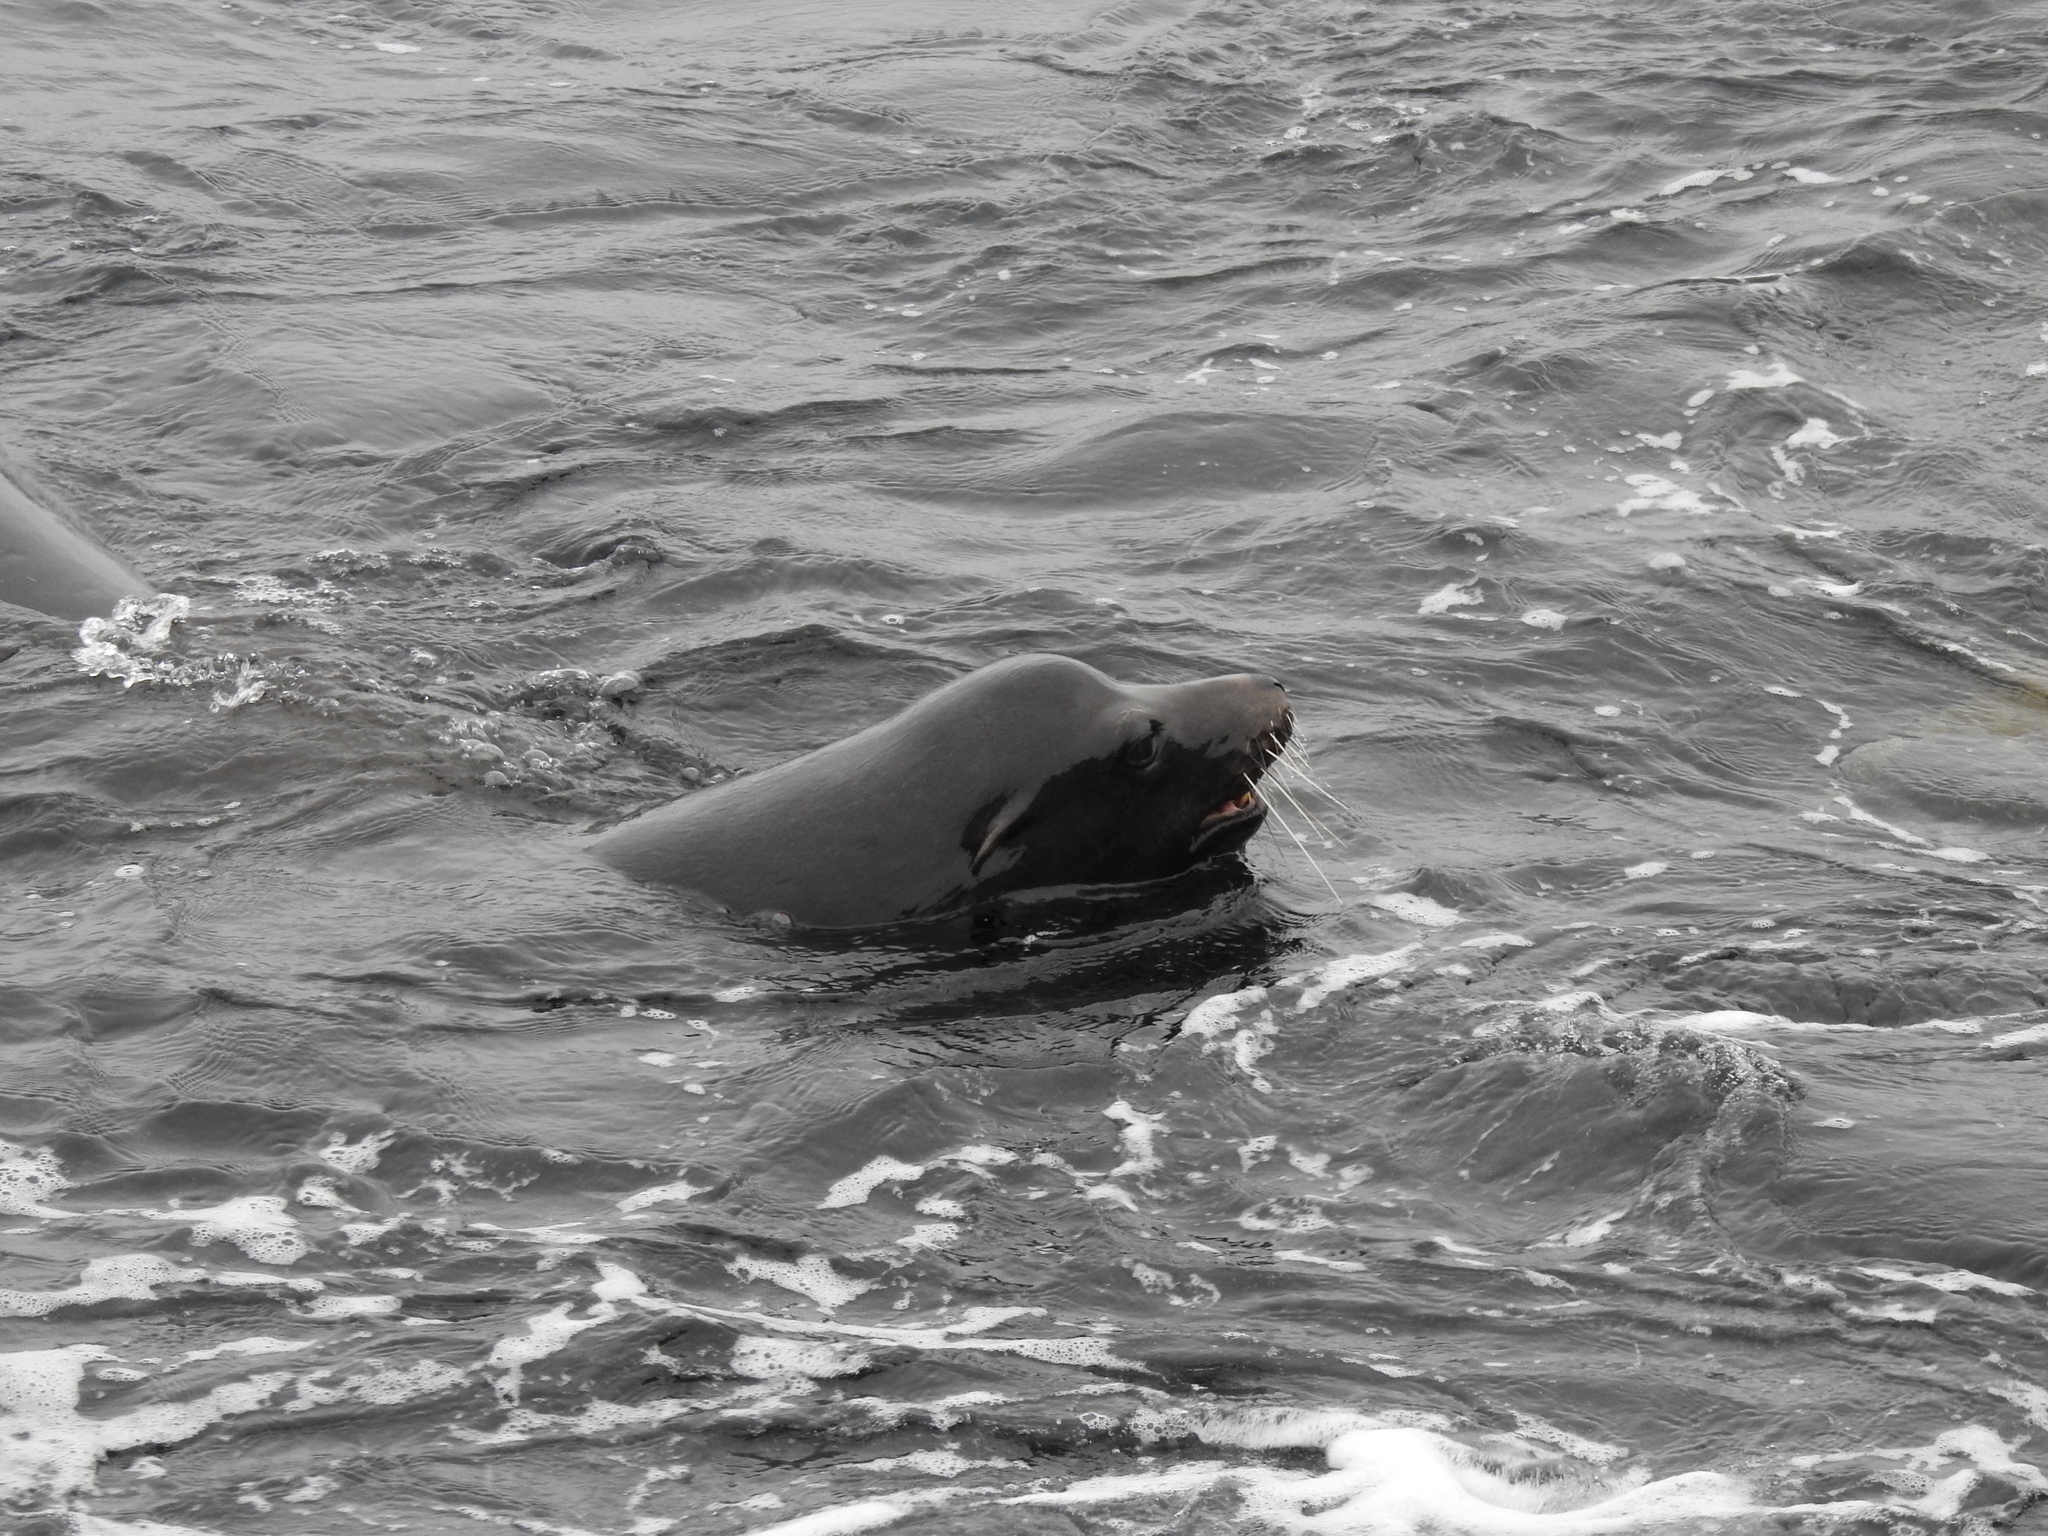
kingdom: Animalia
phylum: Chordata
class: Mammalia
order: Carnivora
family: Otariidae
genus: Zalophus
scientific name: Zalophus californianus
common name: California sea lion
